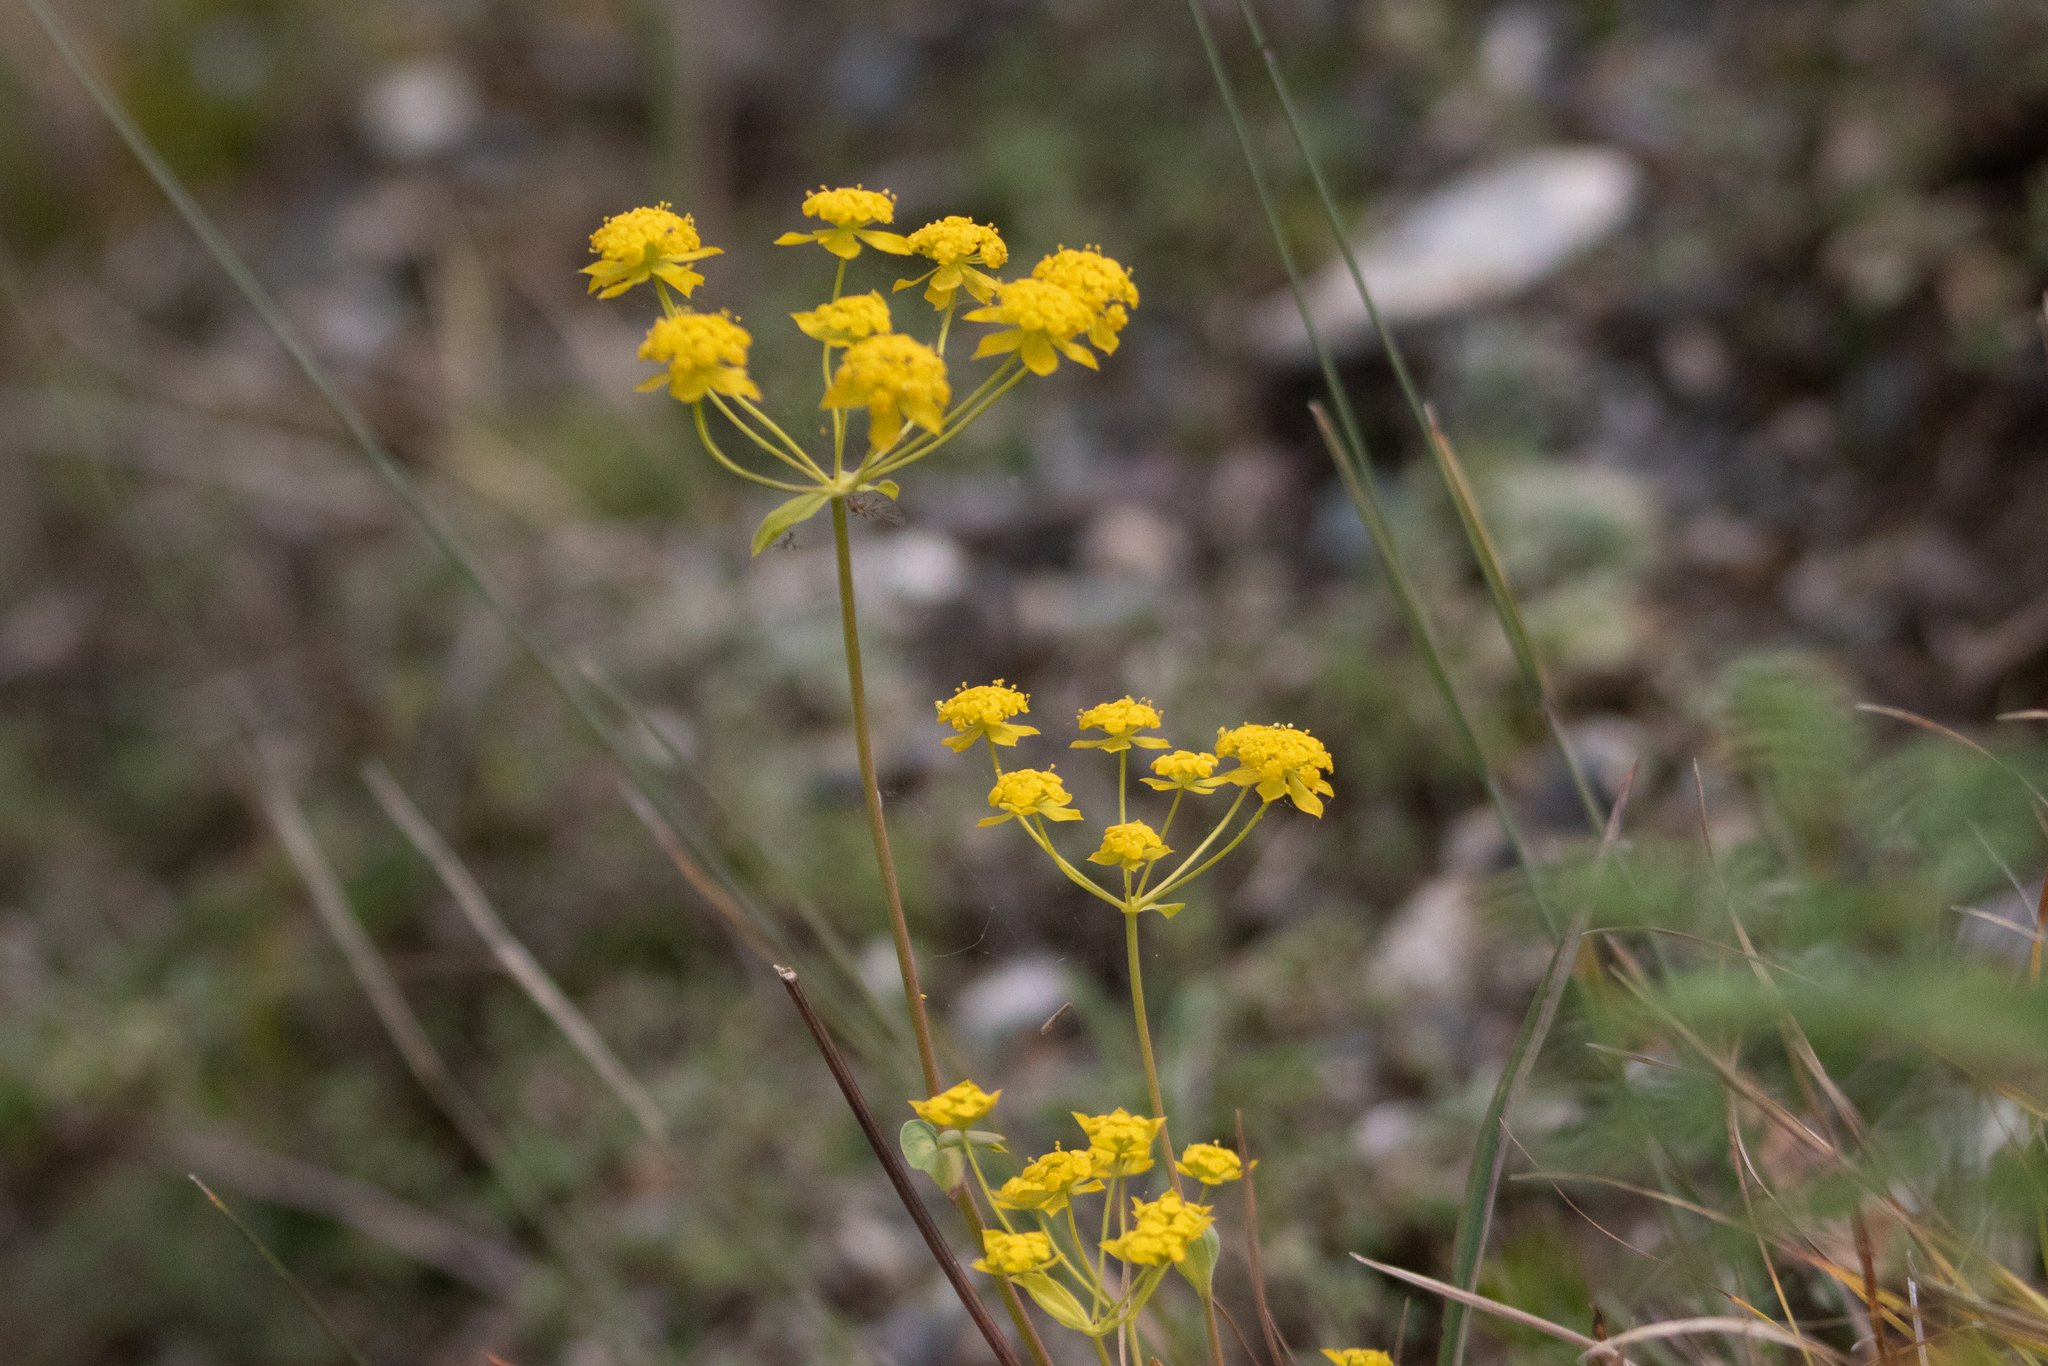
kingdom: Plantae
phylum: Tracheophyta
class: Magnoliopsida
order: Apiales
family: Apiaceae
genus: Bupleurum
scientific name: Bupleurum multinerve
